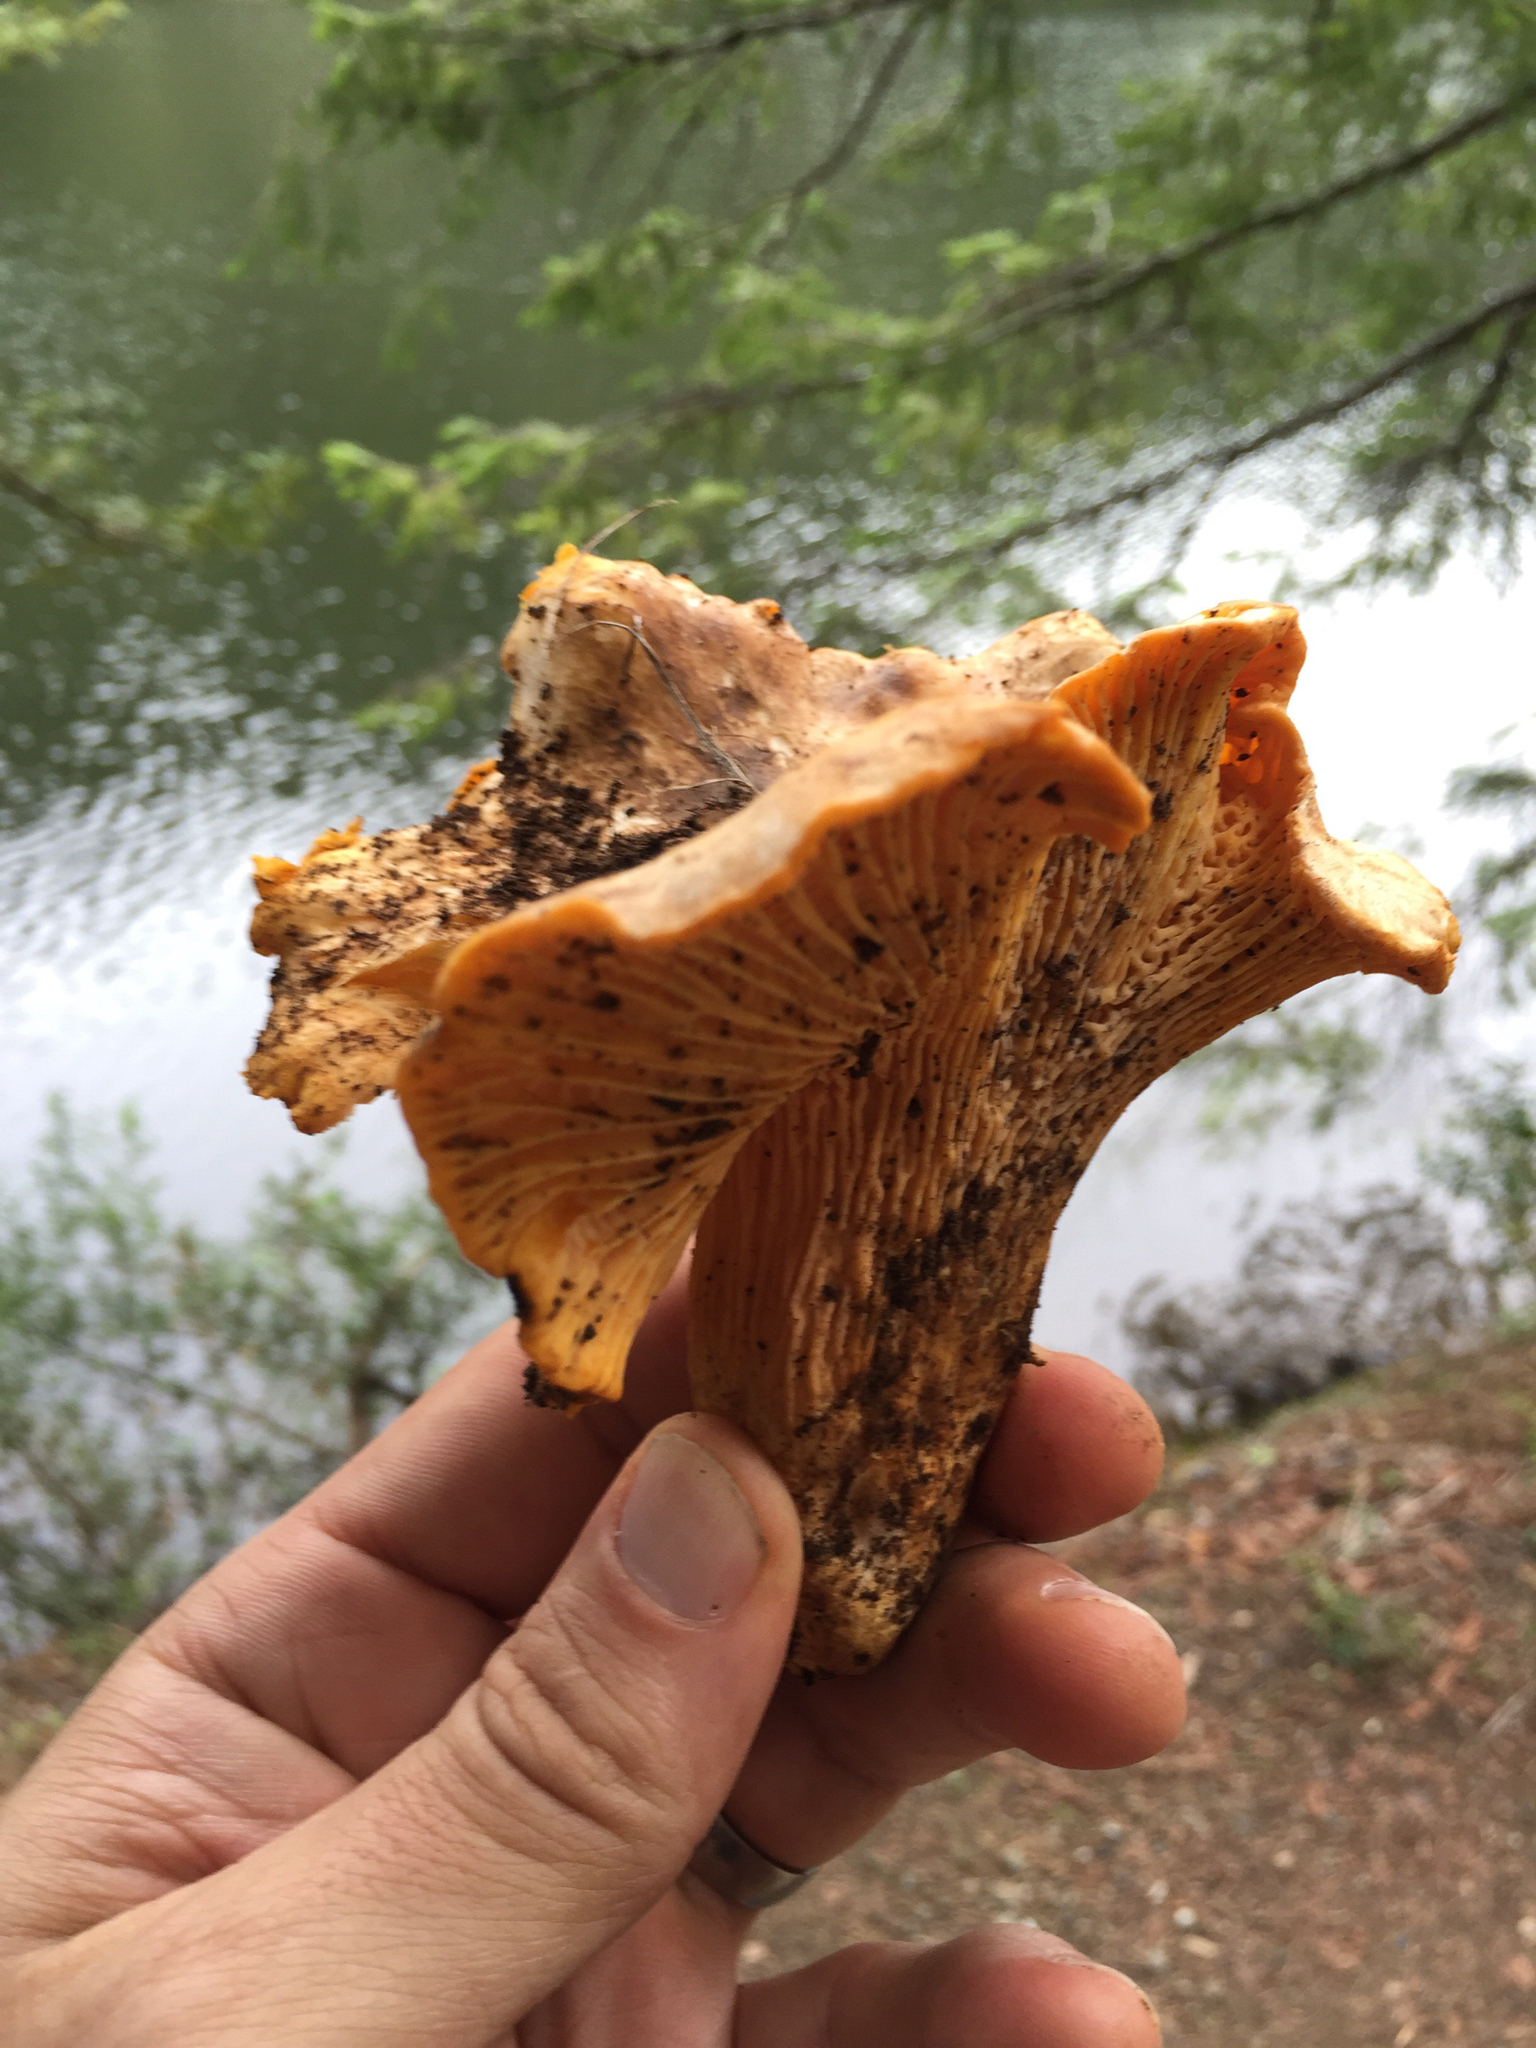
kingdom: Fungi
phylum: Basidiomycota
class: Agaricomycetes
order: Cantharellales
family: Hydnaceae
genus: Cantharellus
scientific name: Cantharellus californicus
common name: California golden chanterelle
